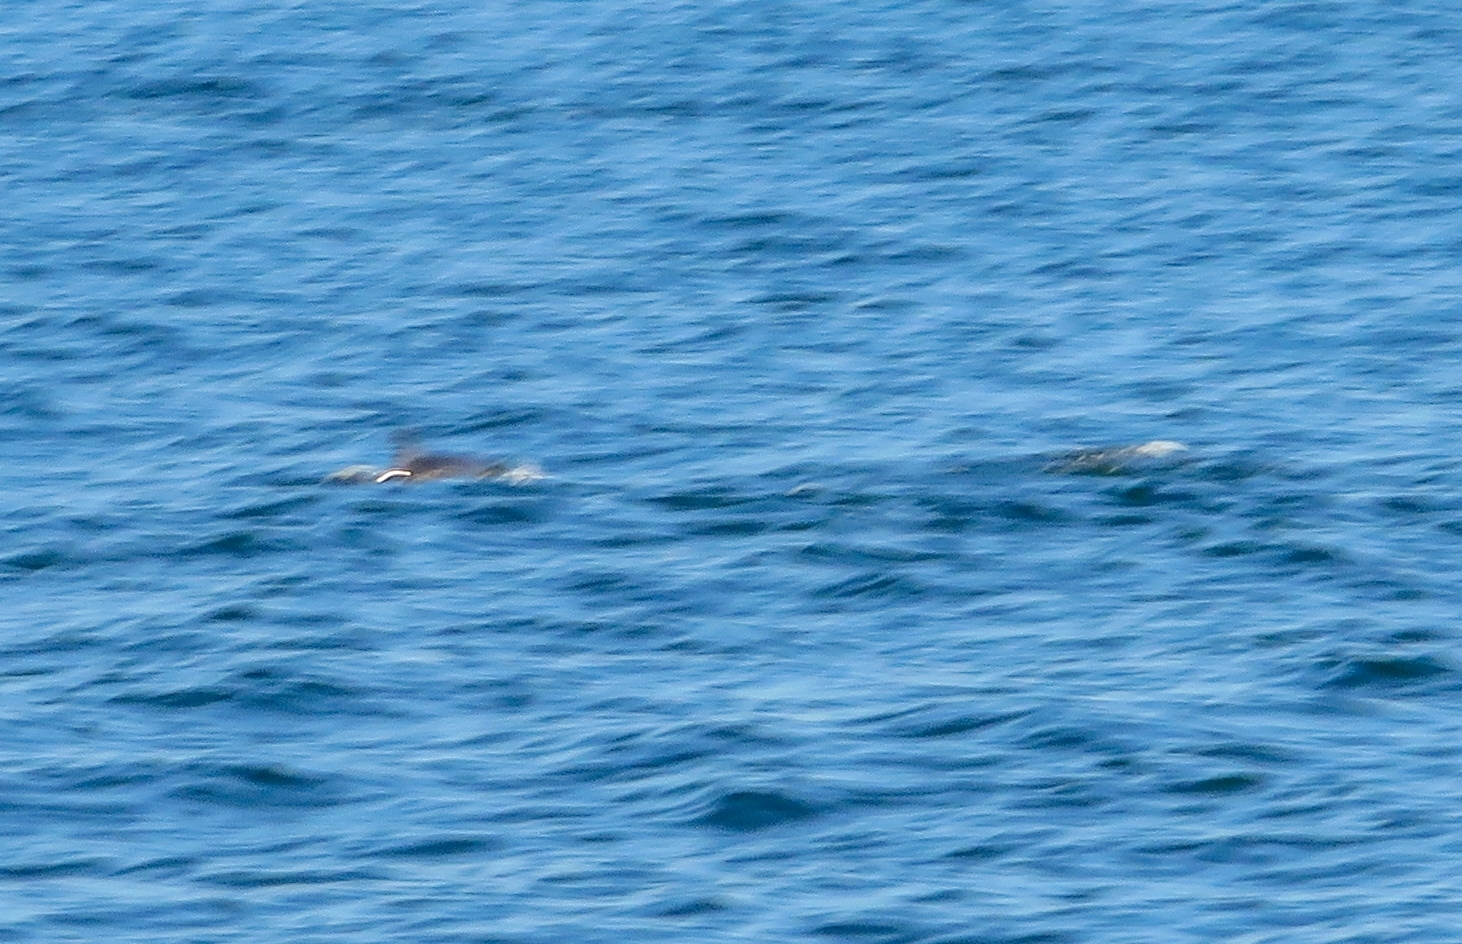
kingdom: Animalia
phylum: Chordata
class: Mammalia
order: Cetacea
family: Delphinidae
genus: Tursiops
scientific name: Tursiops truncatus
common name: Bottlenose dolphin
